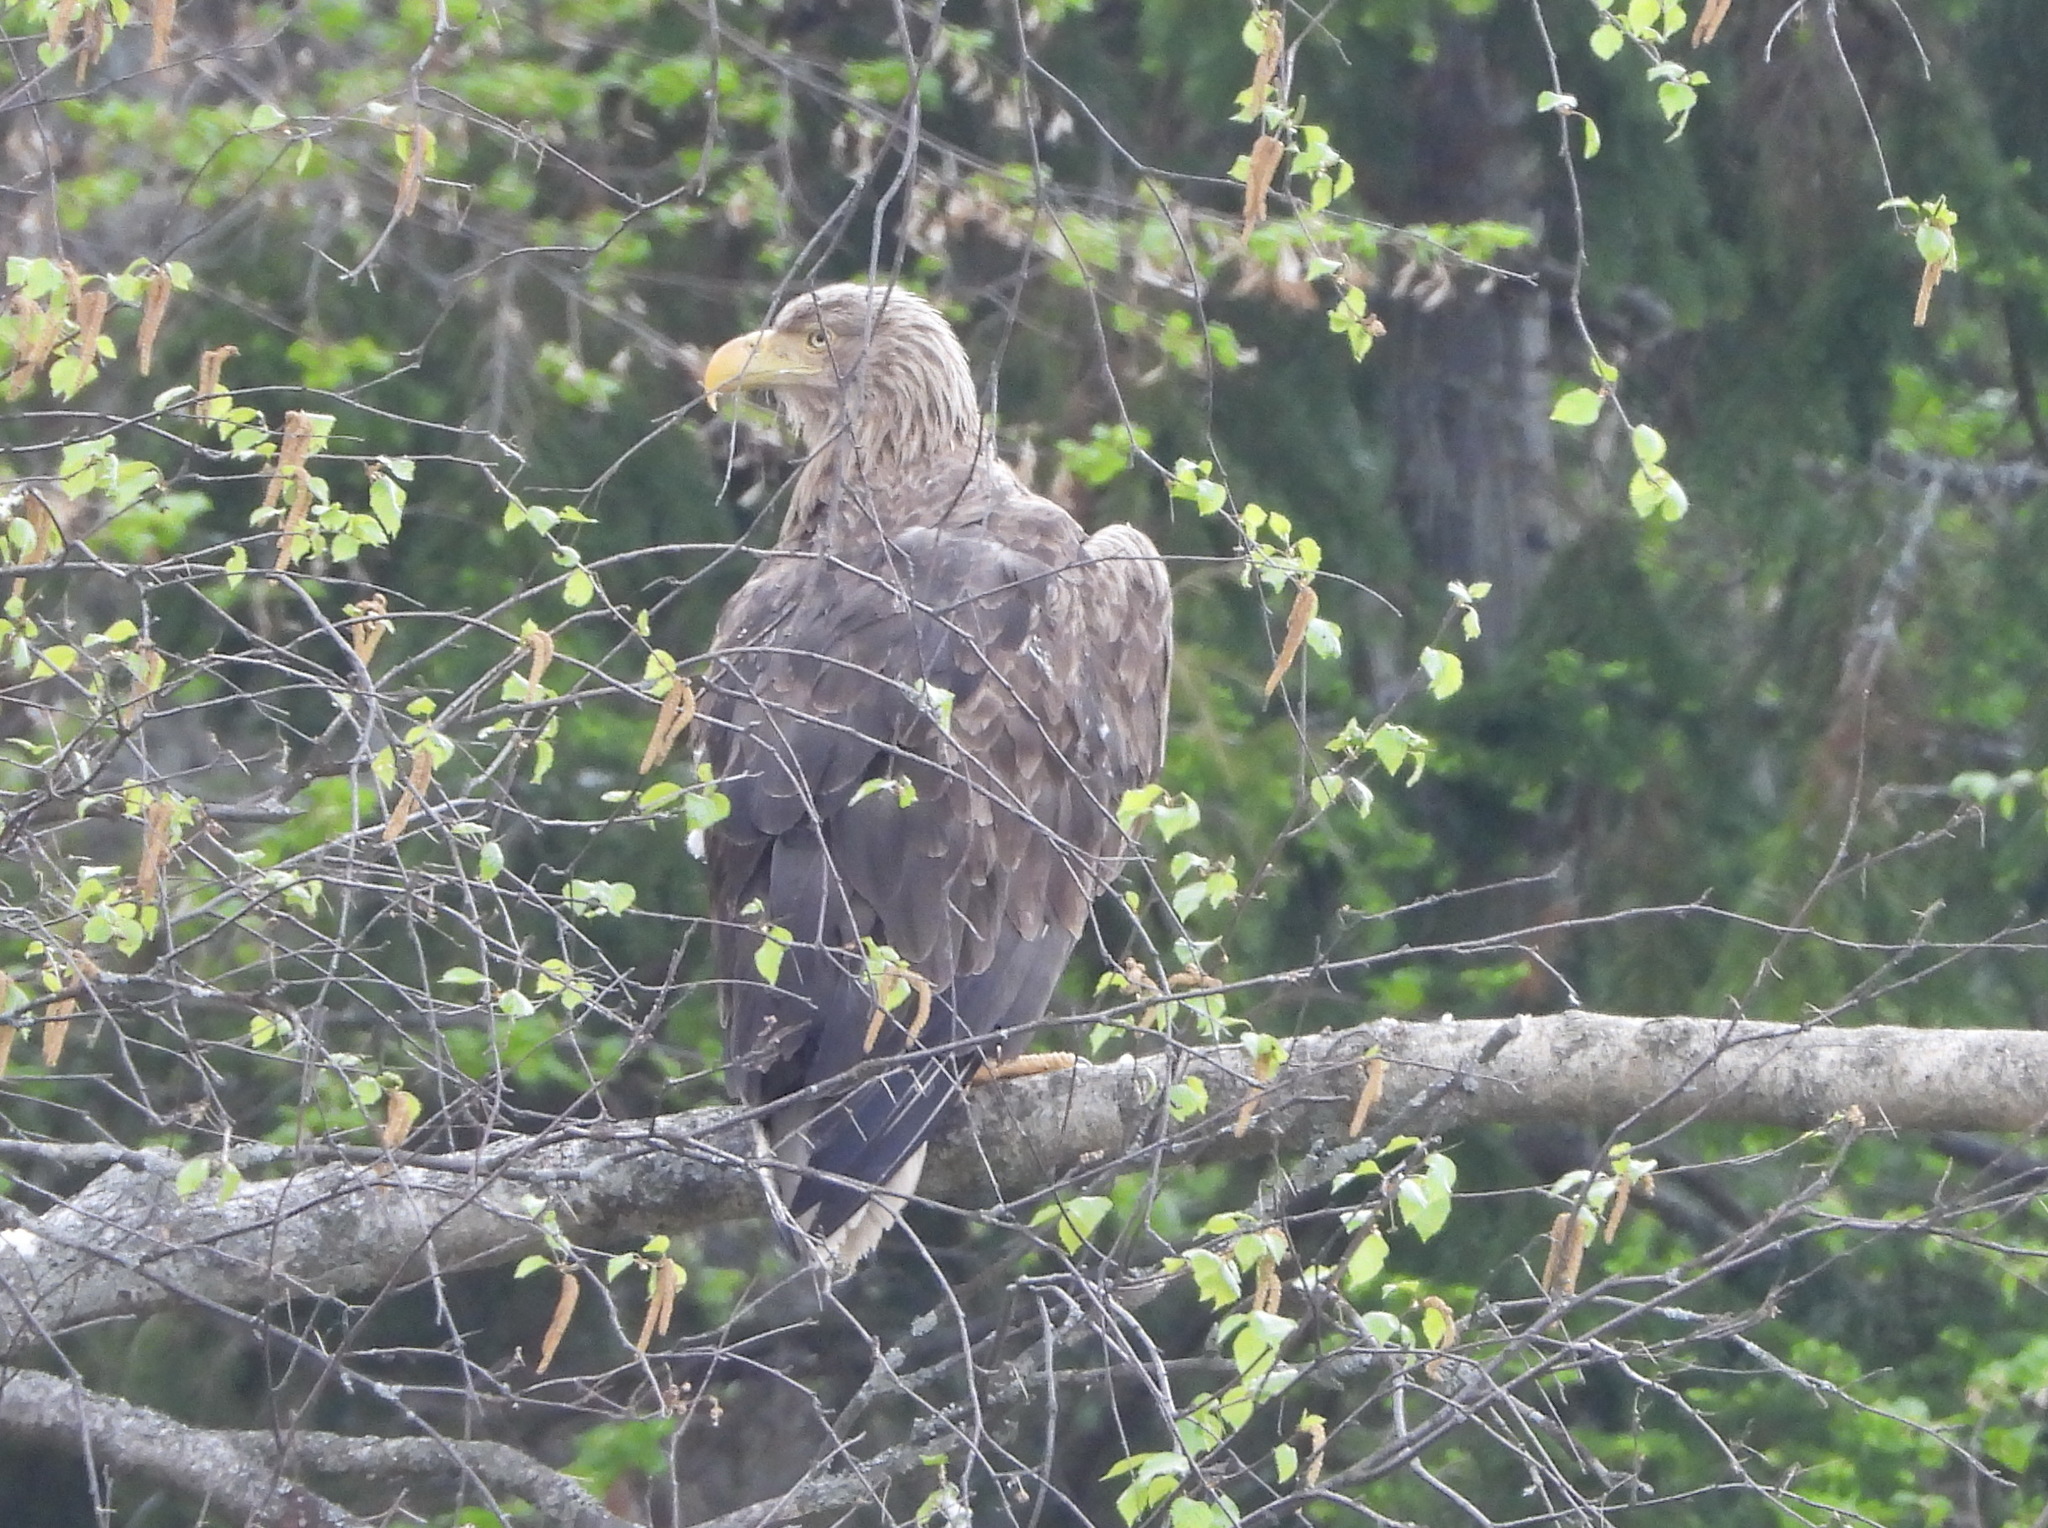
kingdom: Animalia
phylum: Chordata
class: Aves
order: Accipitriformes
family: Accipitridae
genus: Haliaeetus
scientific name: Haliaeetus albicilla
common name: White-tailed eagle
